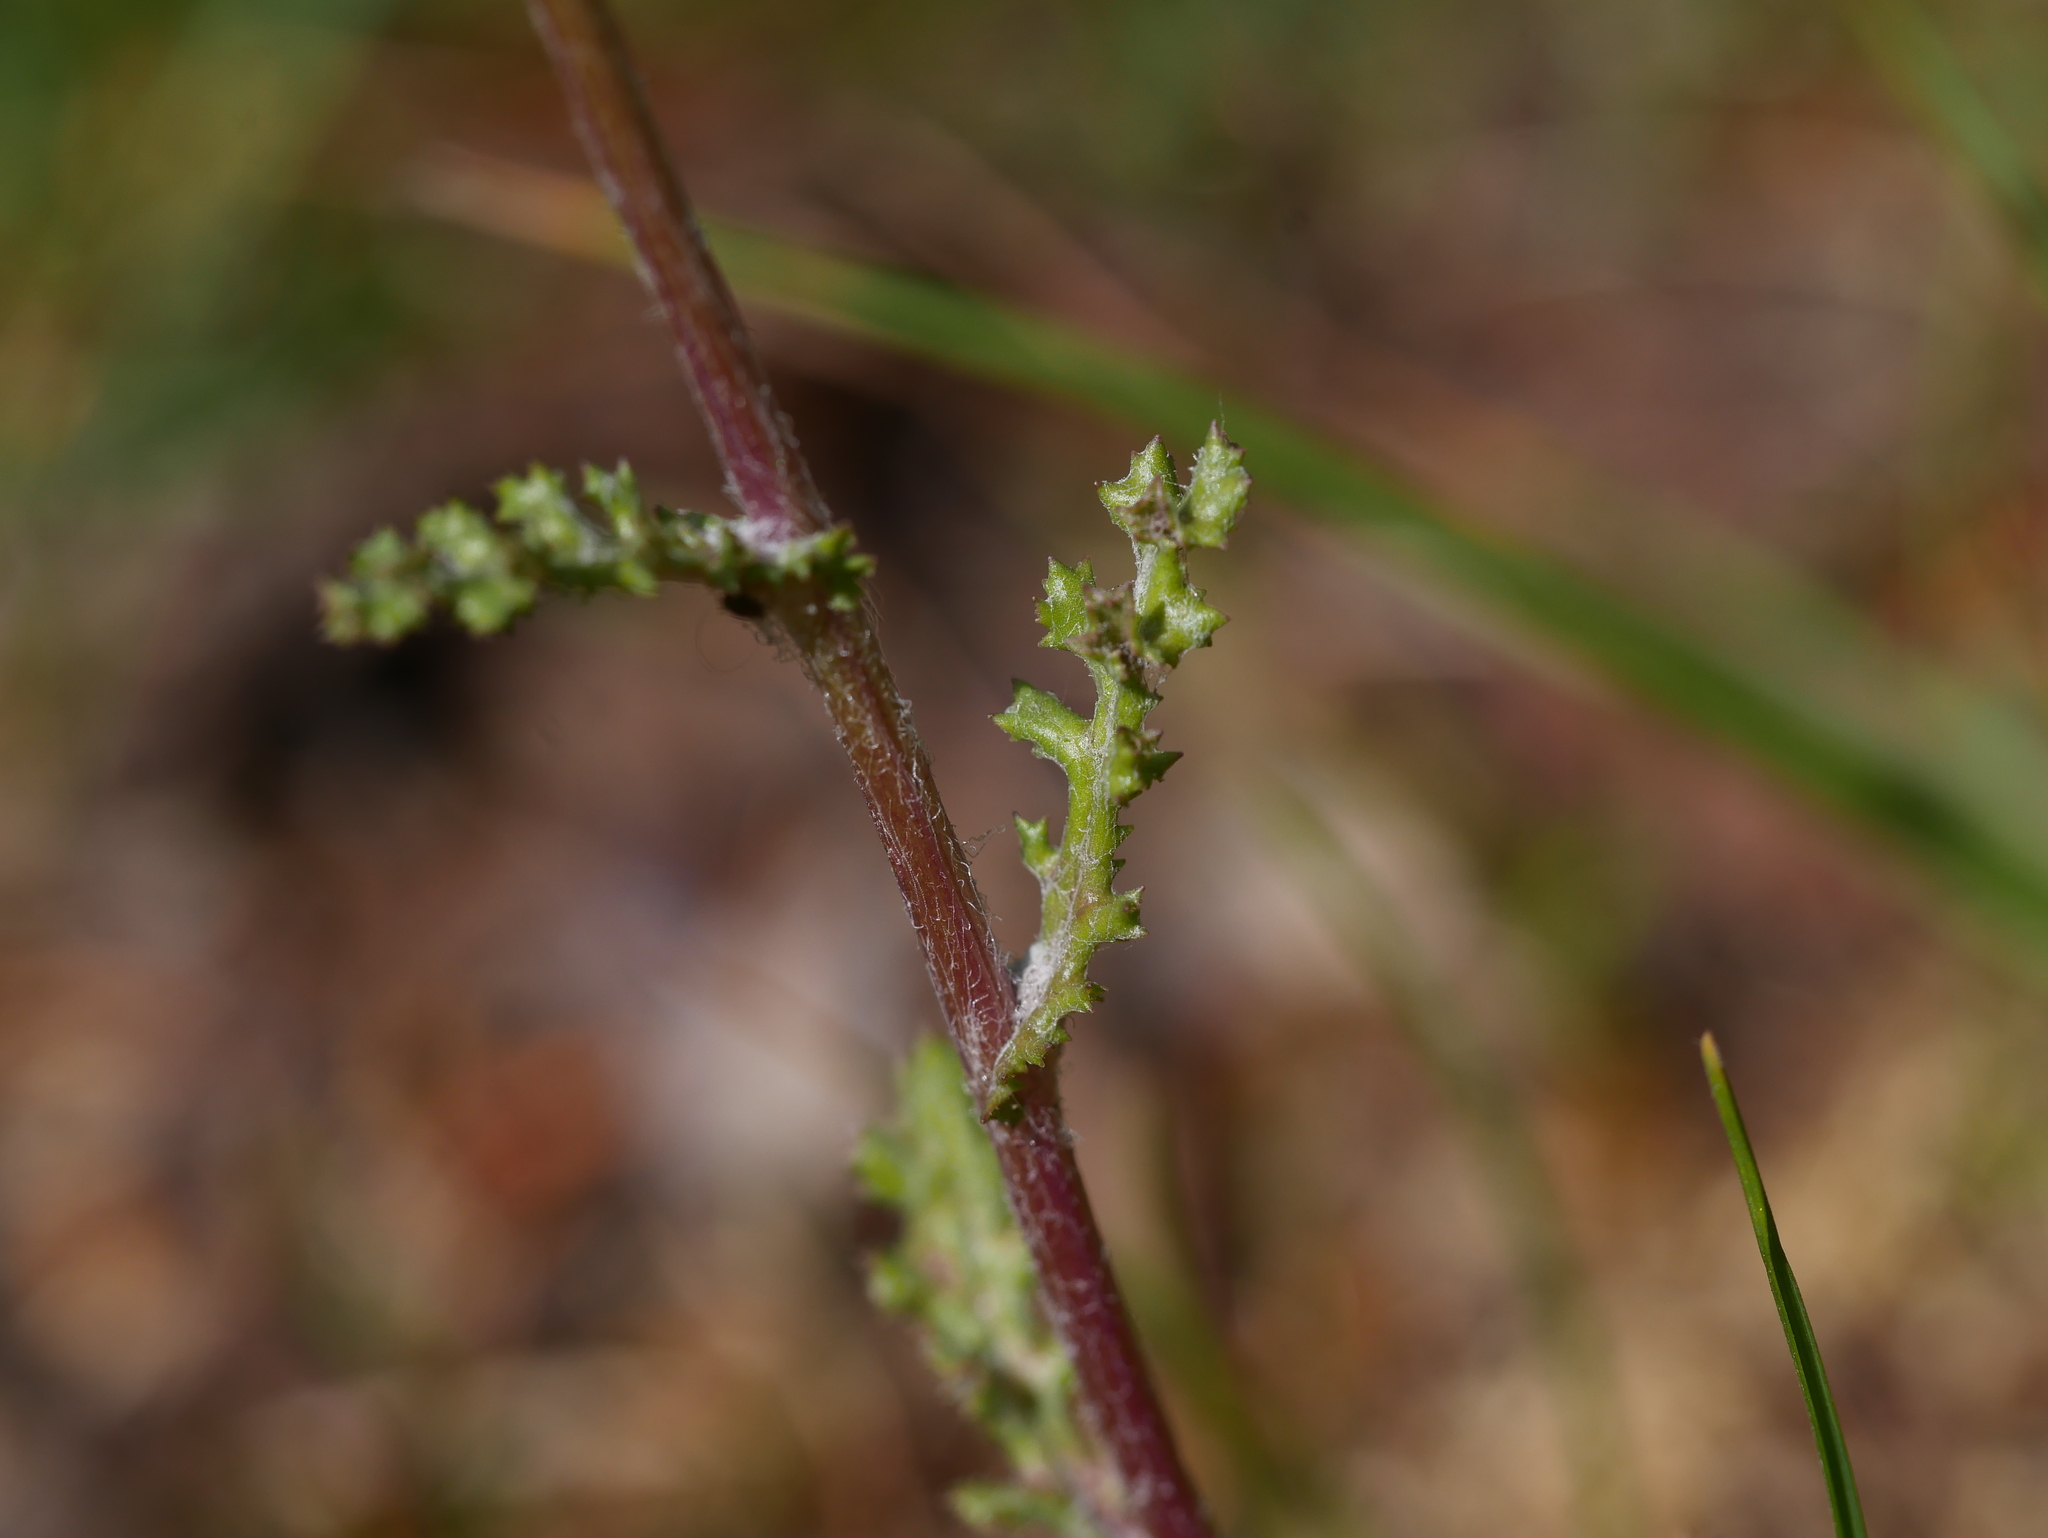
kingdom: Plantae
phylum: Tracheophyta
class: Magnoliopsida
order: Asterales
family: Asteraceae
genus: Senecio
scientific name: Senecio vernalis
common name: Eastern groundsel
